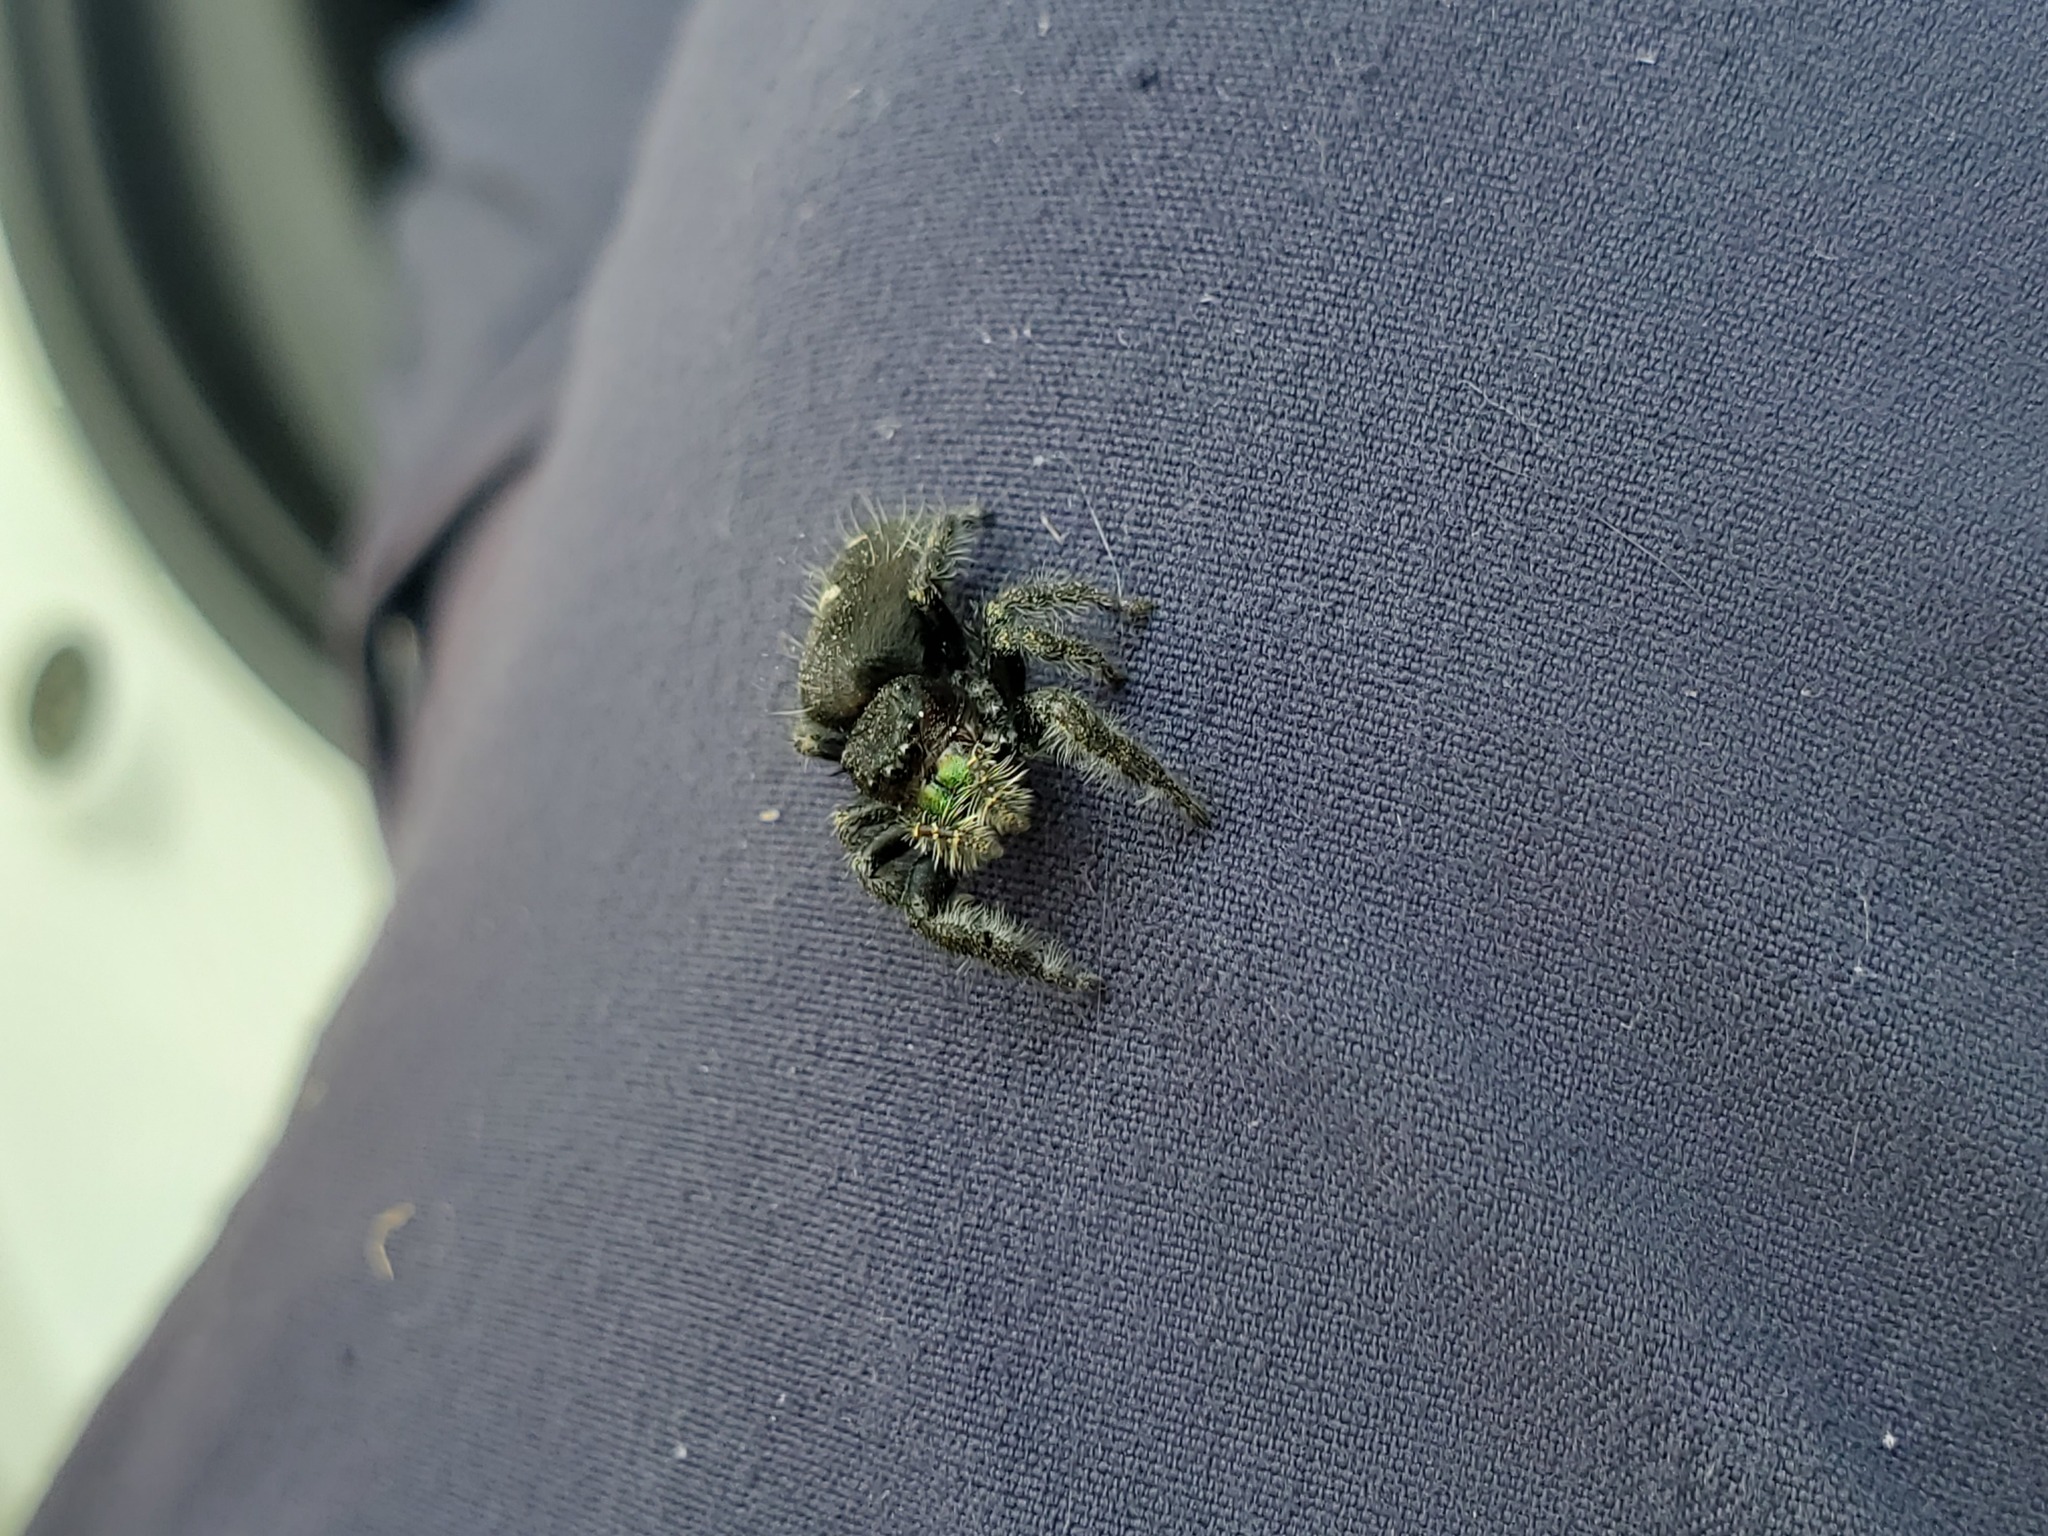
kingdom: Animalia
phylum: Arthropoda
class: Arachnida
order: Araneae
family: Salticidae
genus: Phidippus
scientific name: Phidippus audax
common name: Bold jumper
